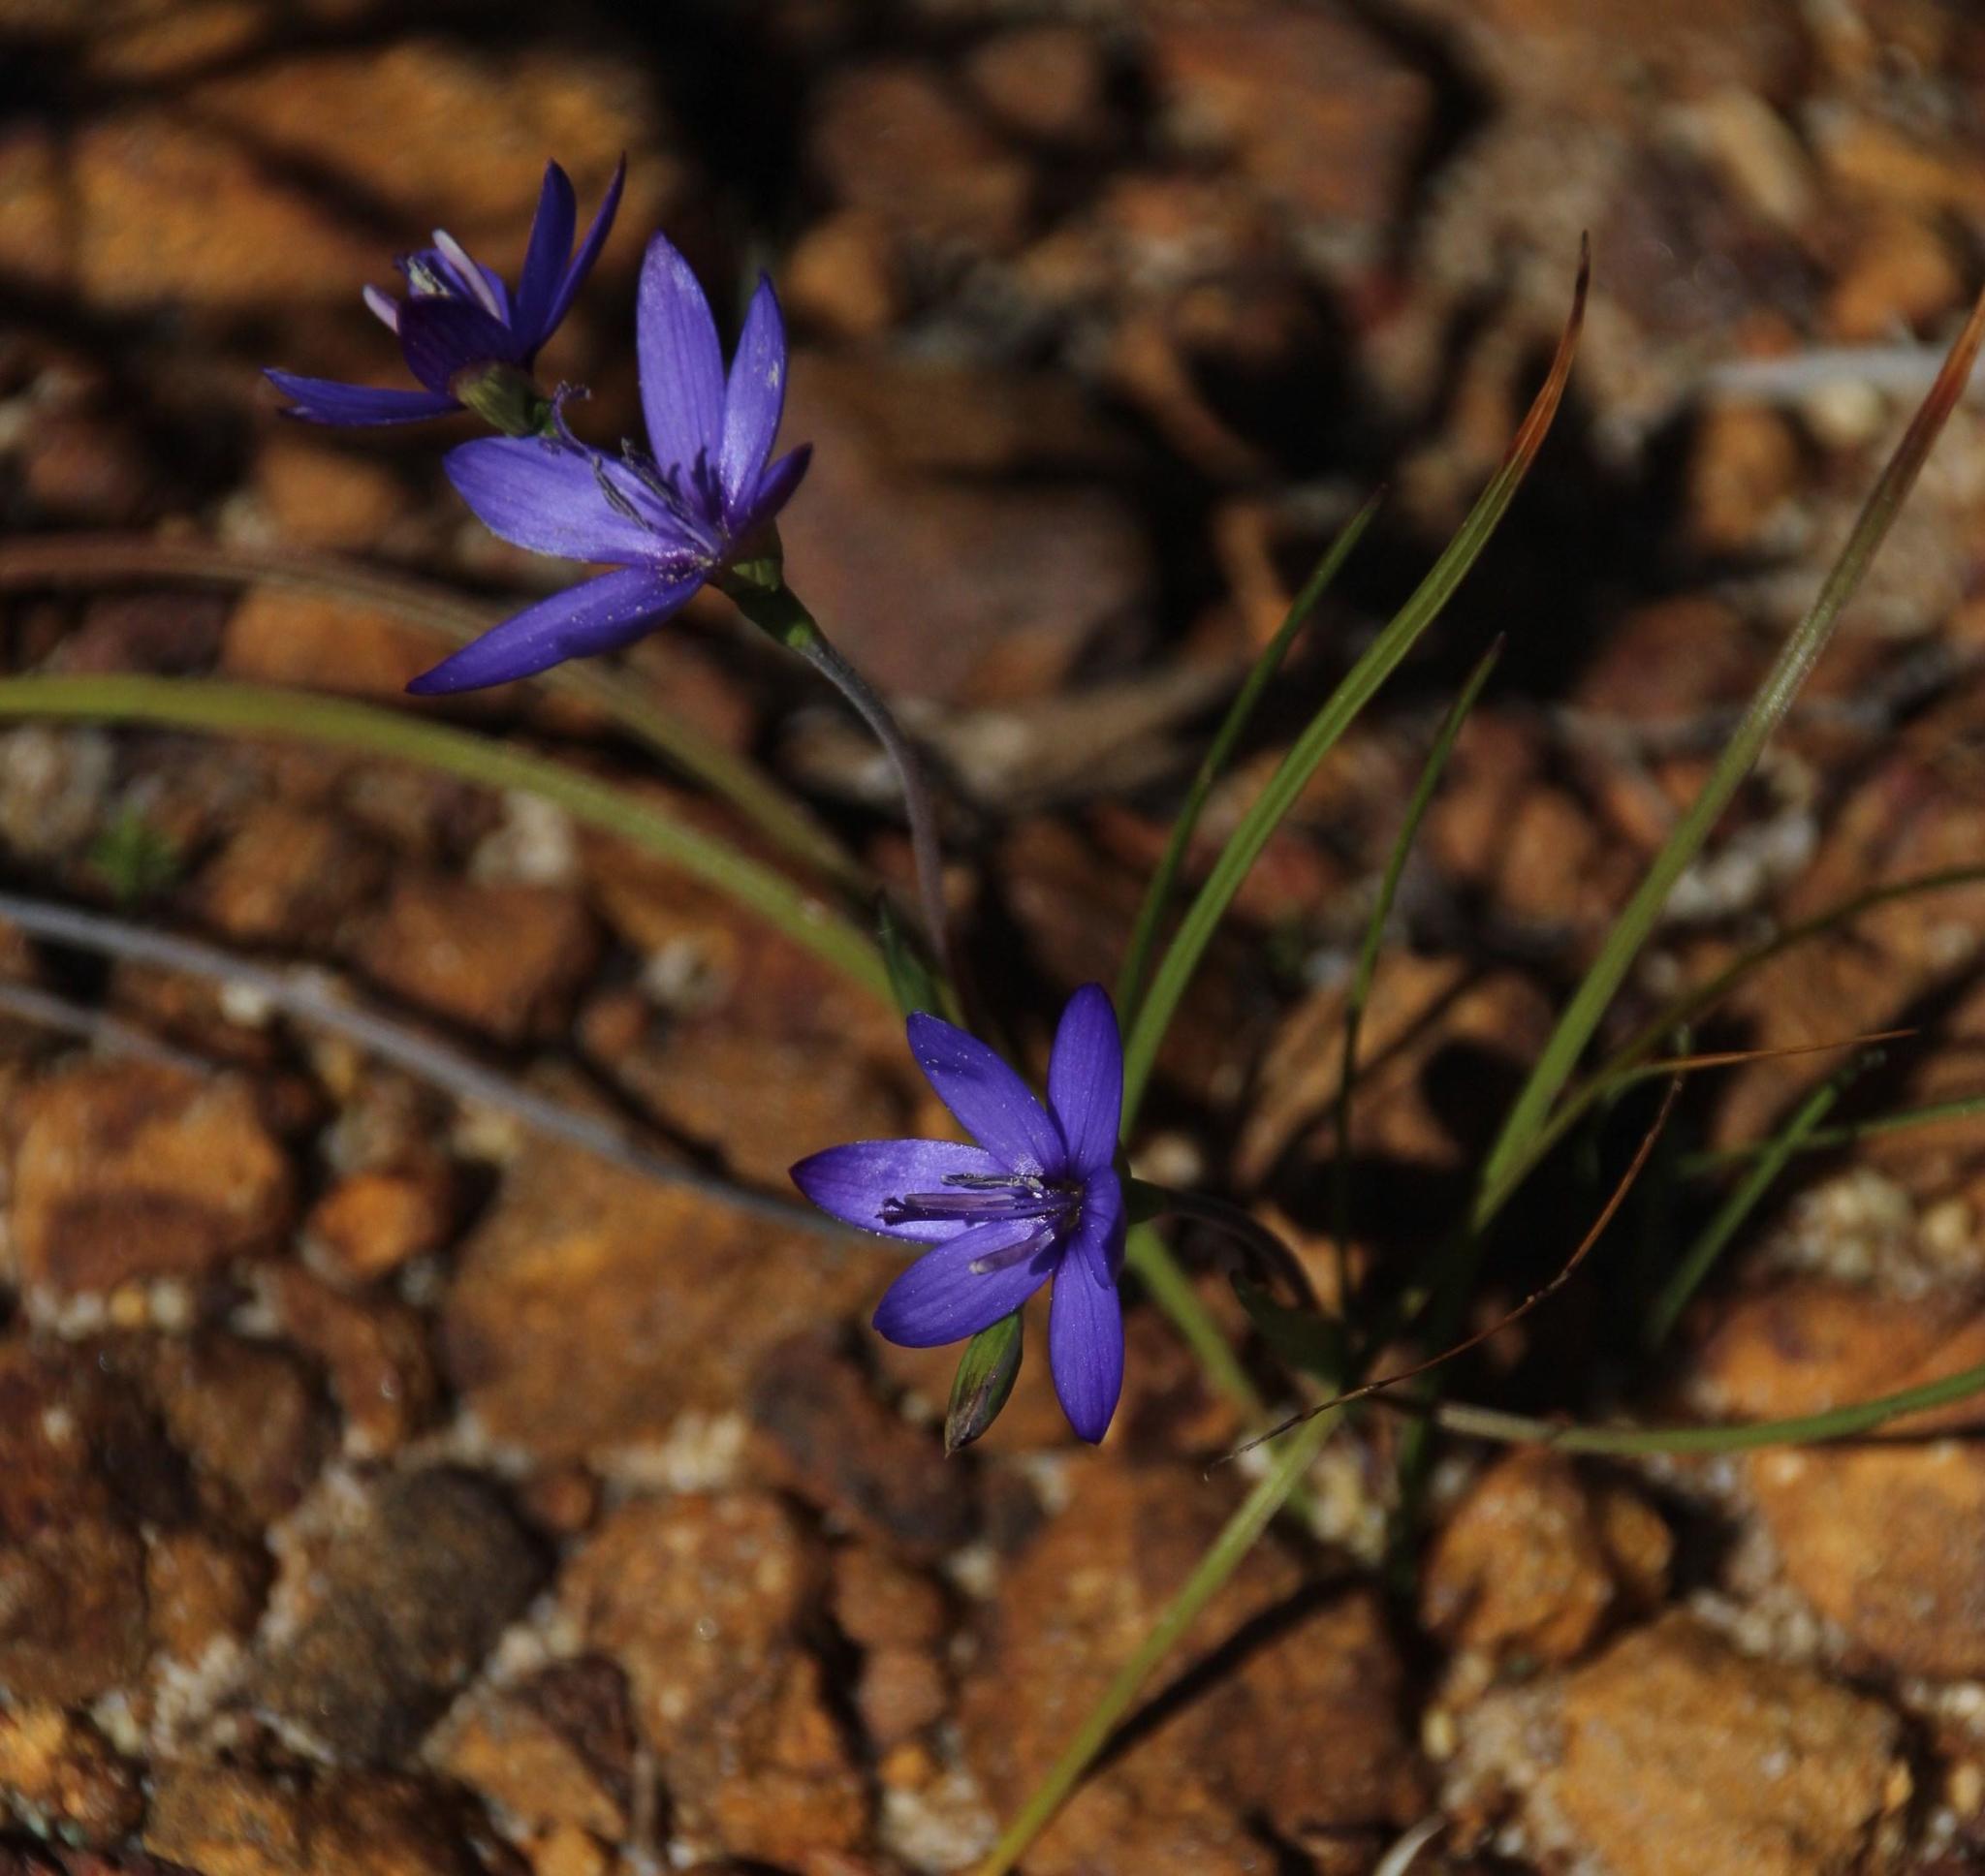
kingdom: Plantae
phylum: Tracheophyta
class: Liliopsida
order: Asparagales
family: Iridaceae
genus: Geissorhiza
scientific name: Geissorhiza aspera
